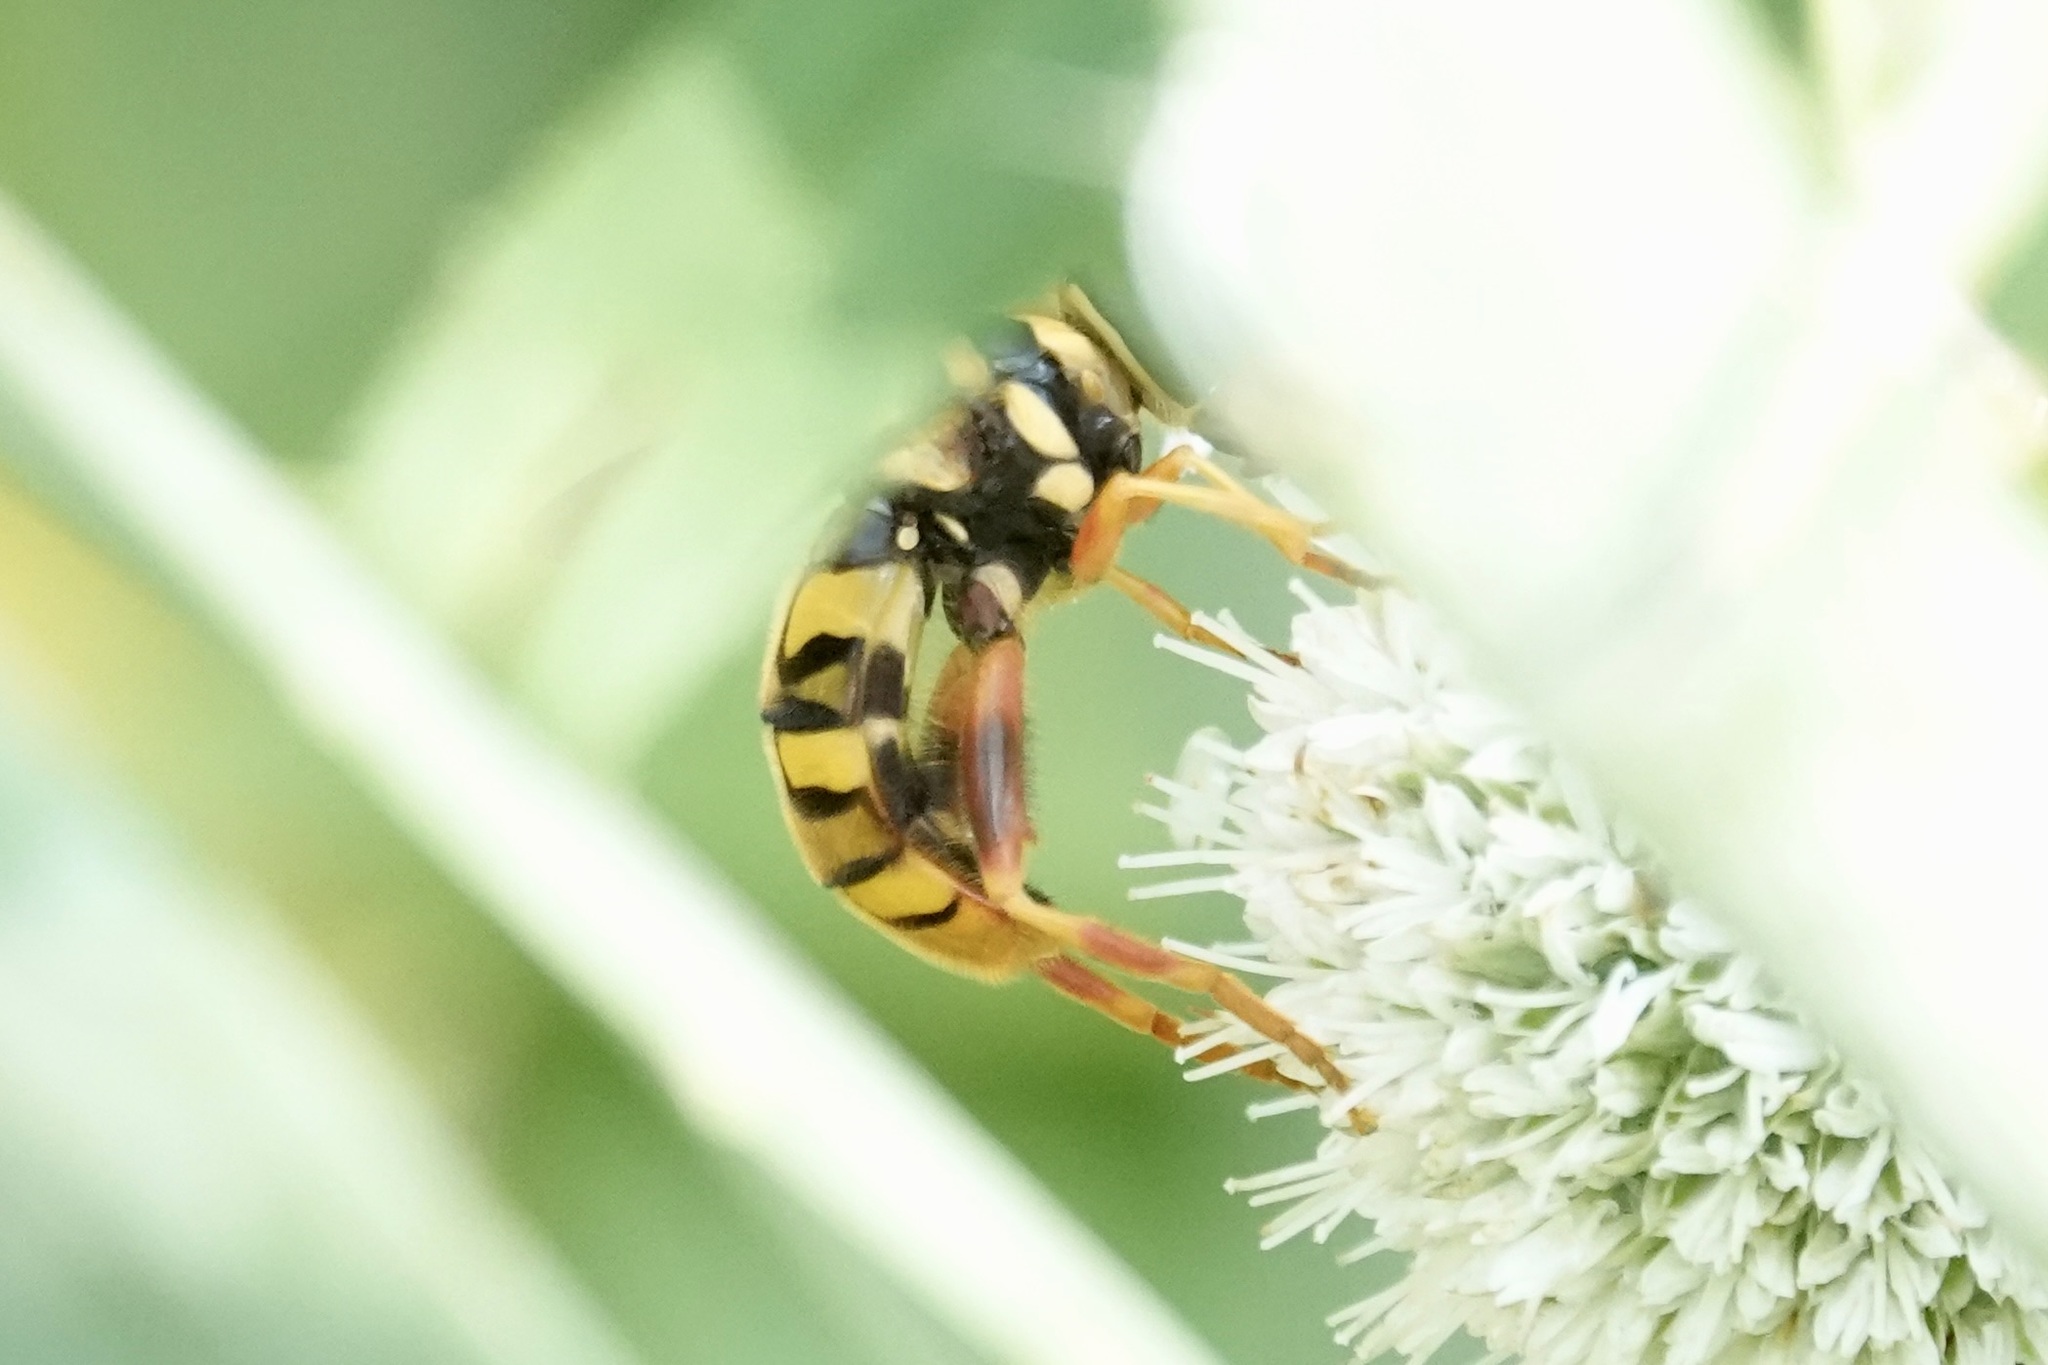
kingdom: Animalia
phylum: Arthropoda
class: Insecta
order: Diptera
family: Syrphidae
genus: Milesia
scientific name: Milesia virginiensis
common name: Virginia giant
